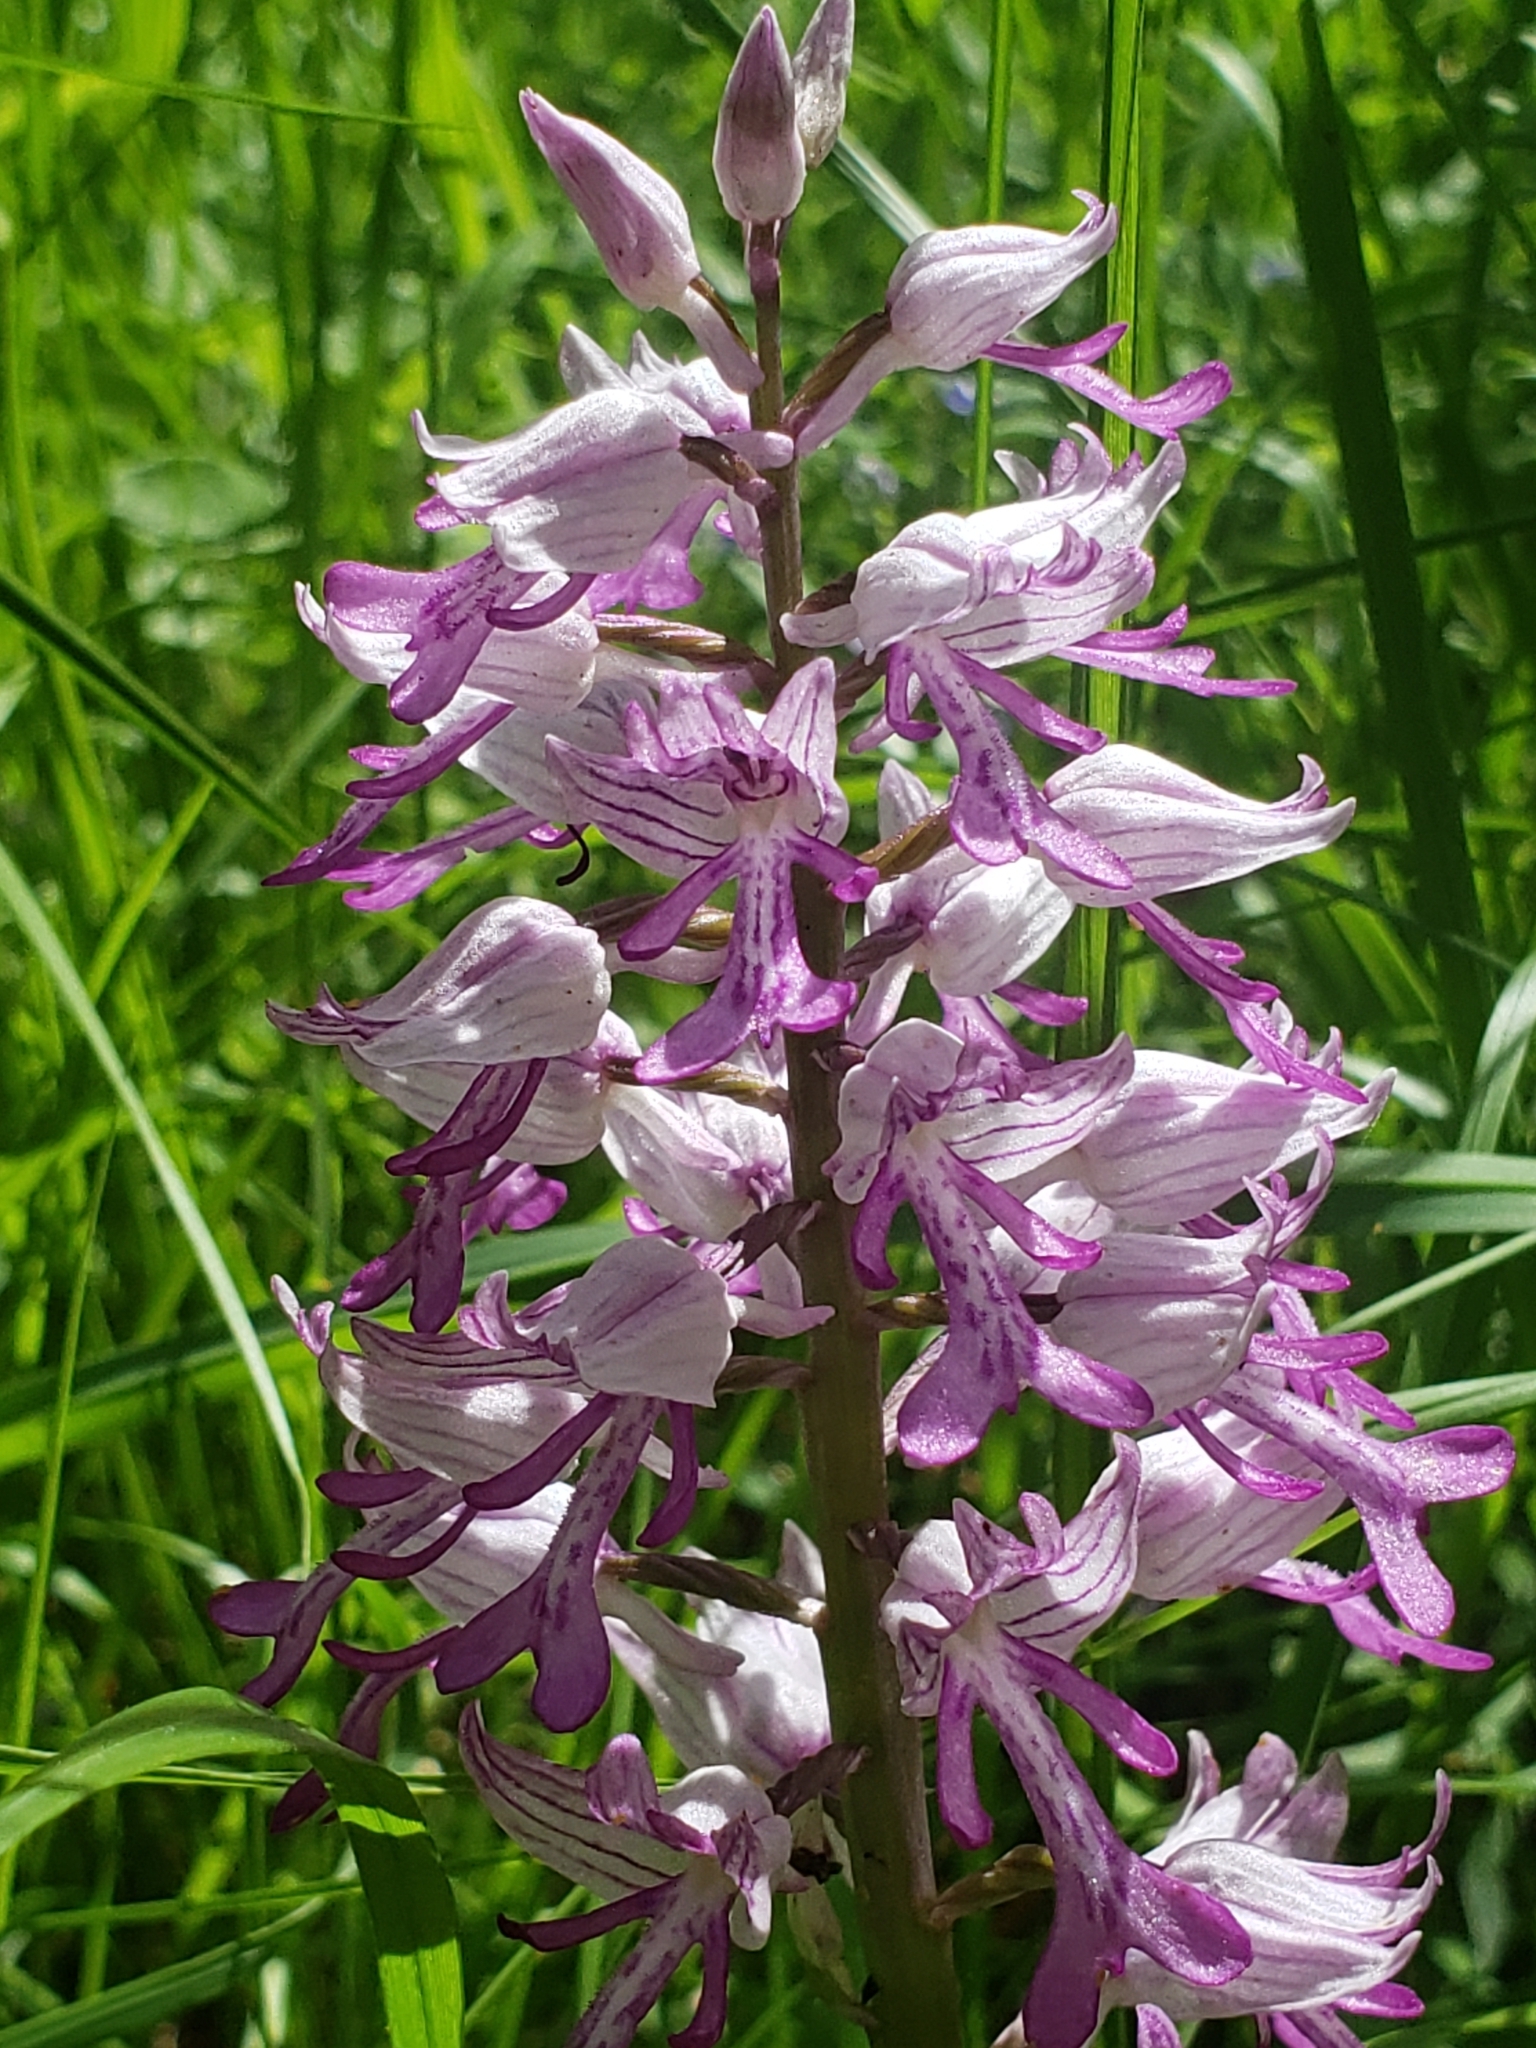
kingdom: Plantae
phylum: Tracheophyta
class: Liliopsida
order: Asparagales
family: Orchidaceae
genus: Orchis
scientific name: Orchis militaris
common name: Military orchid
